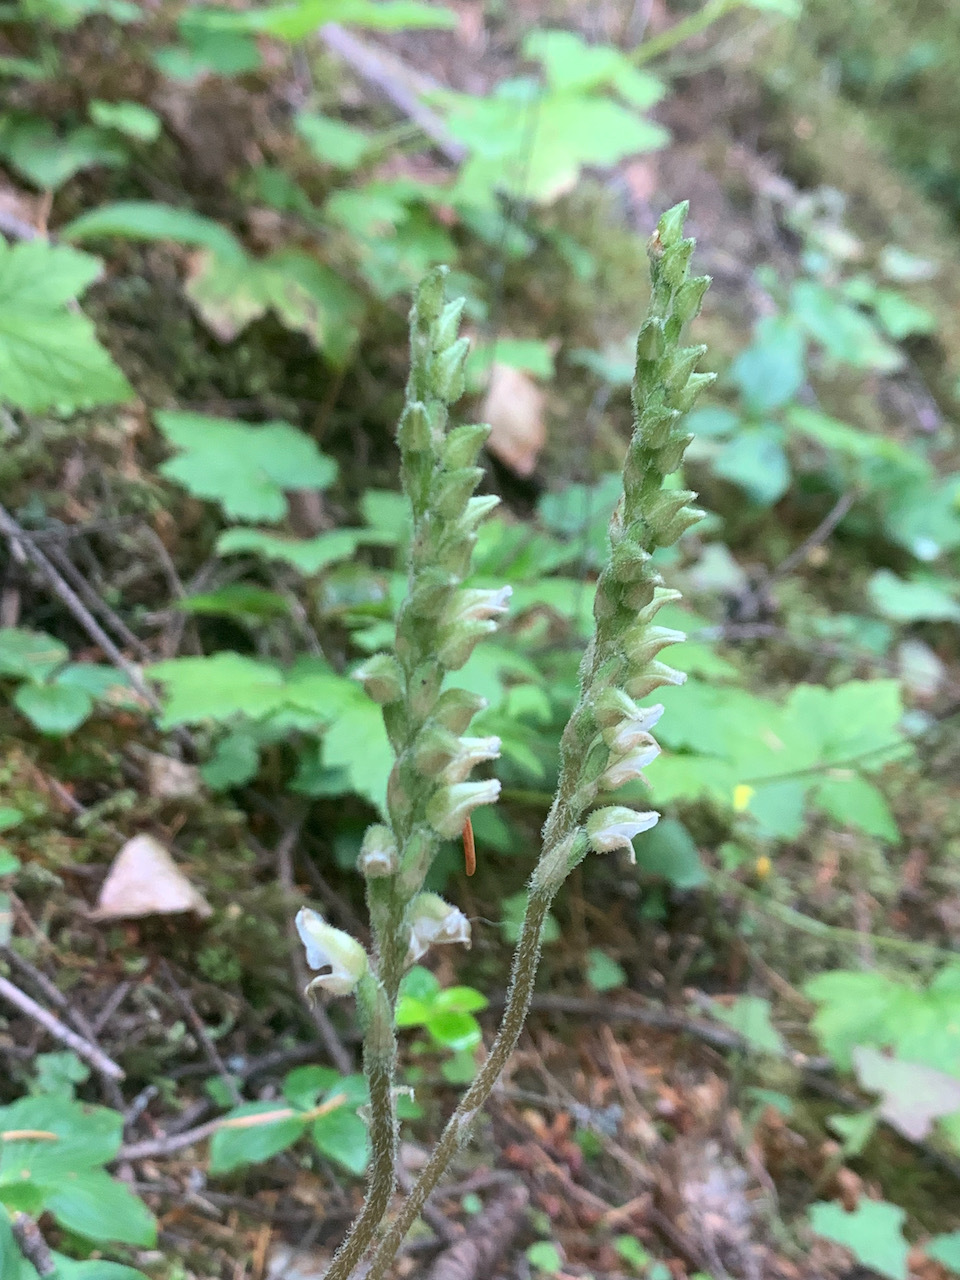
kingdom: Plantae
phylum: Tracheophyta
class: Liliopsida
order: Asparagales
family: Orchidaceae
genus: Goodyera
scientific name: Goodyera oblongifolia
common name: Giant rattlesnake-plantain
